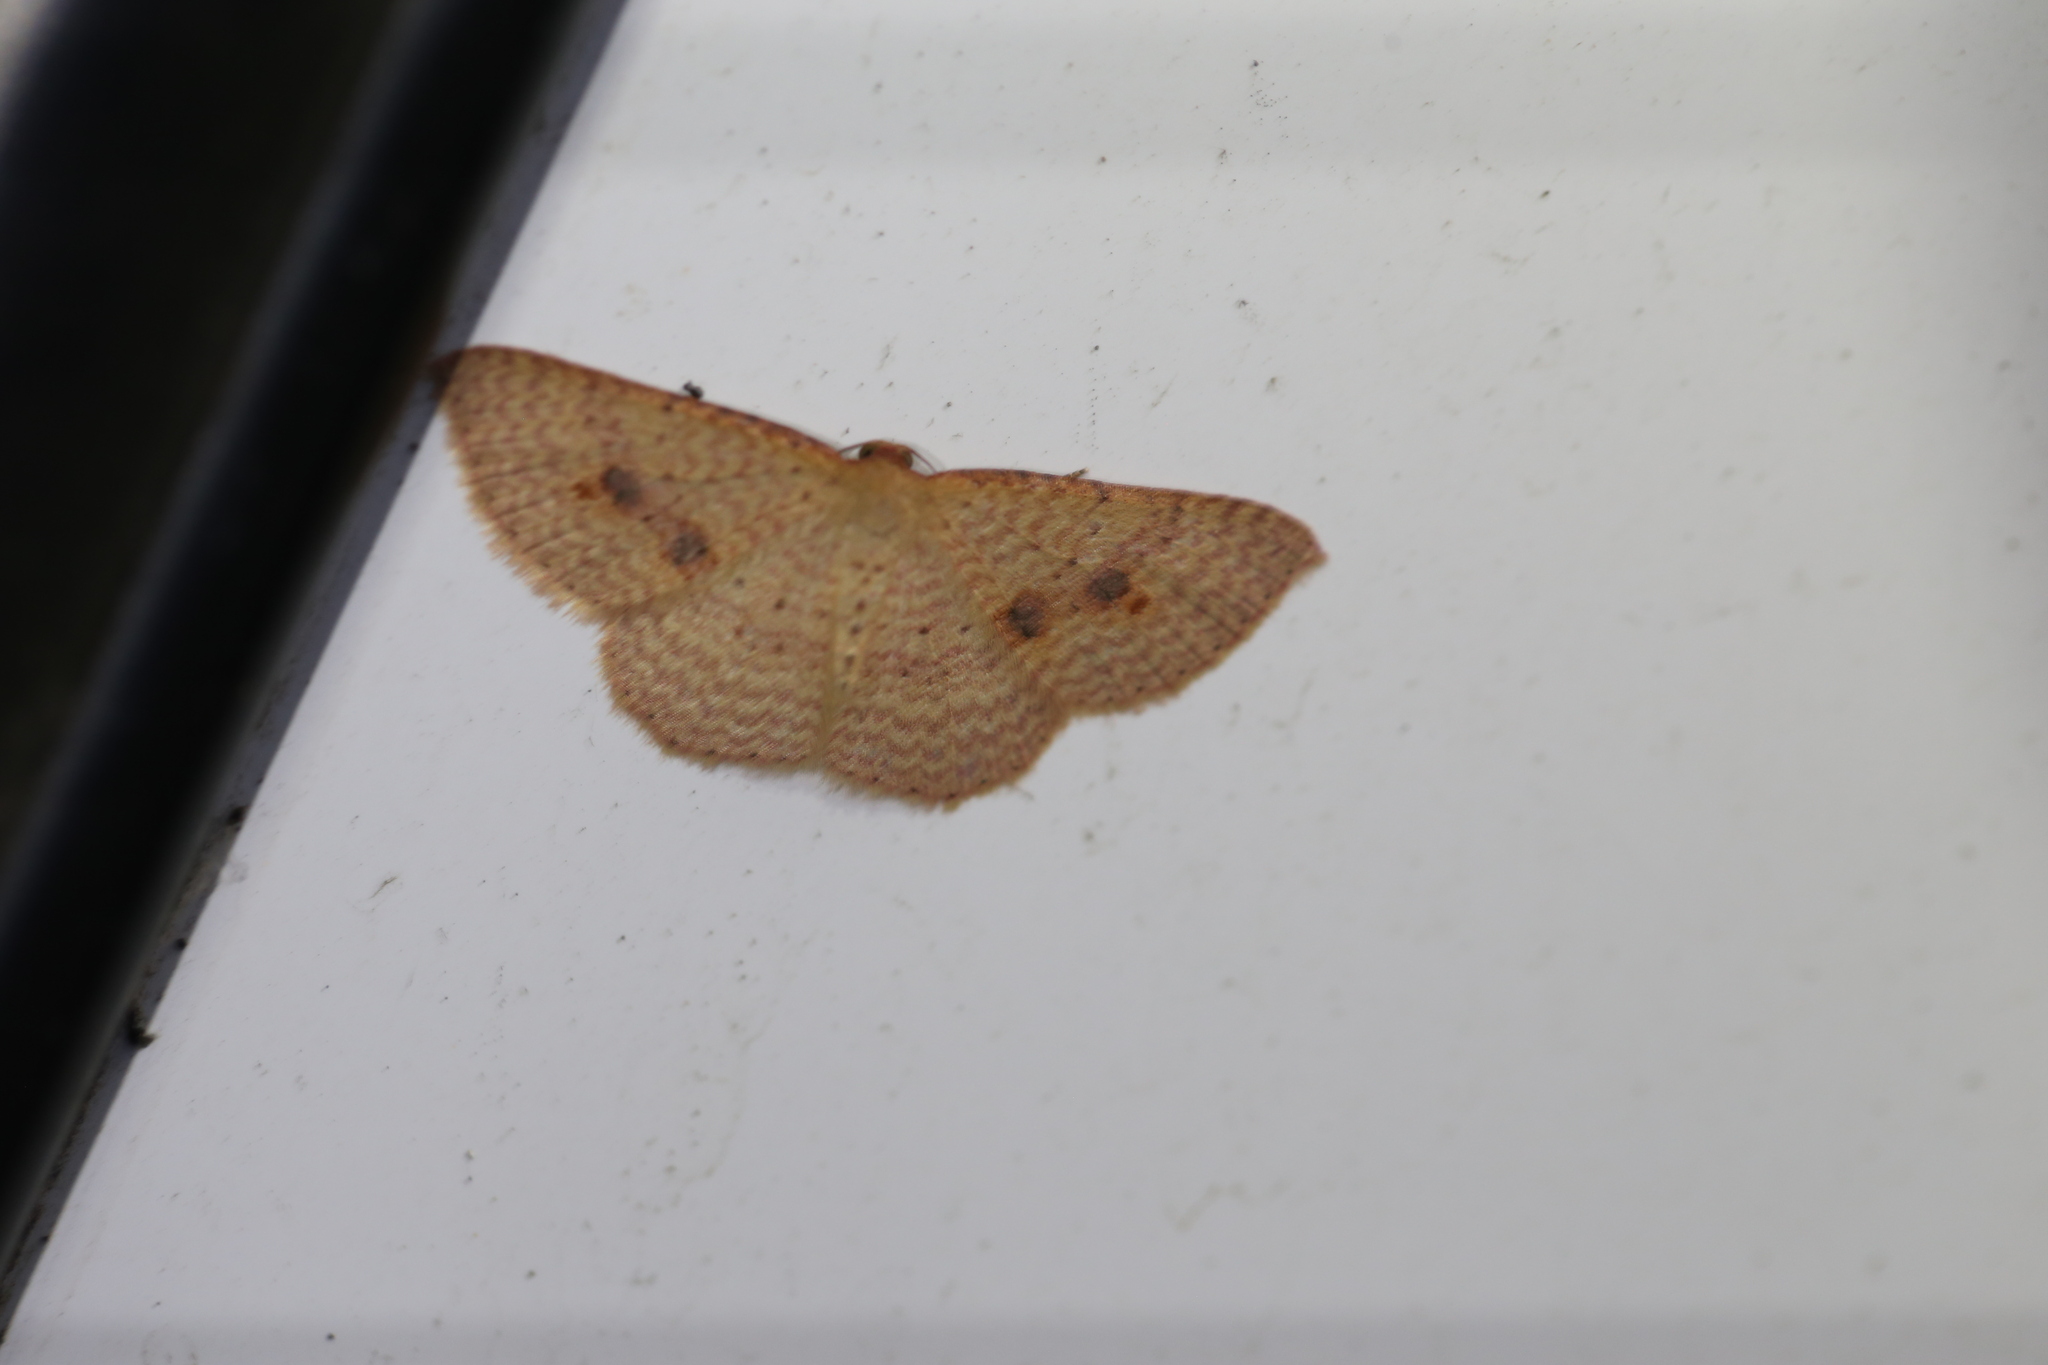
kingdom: Animalia
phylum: Arthropoda
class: Insecta
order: Lepidoptera
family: Geometridae
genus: Epicyme
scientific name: Epicyme rubropunctaria
